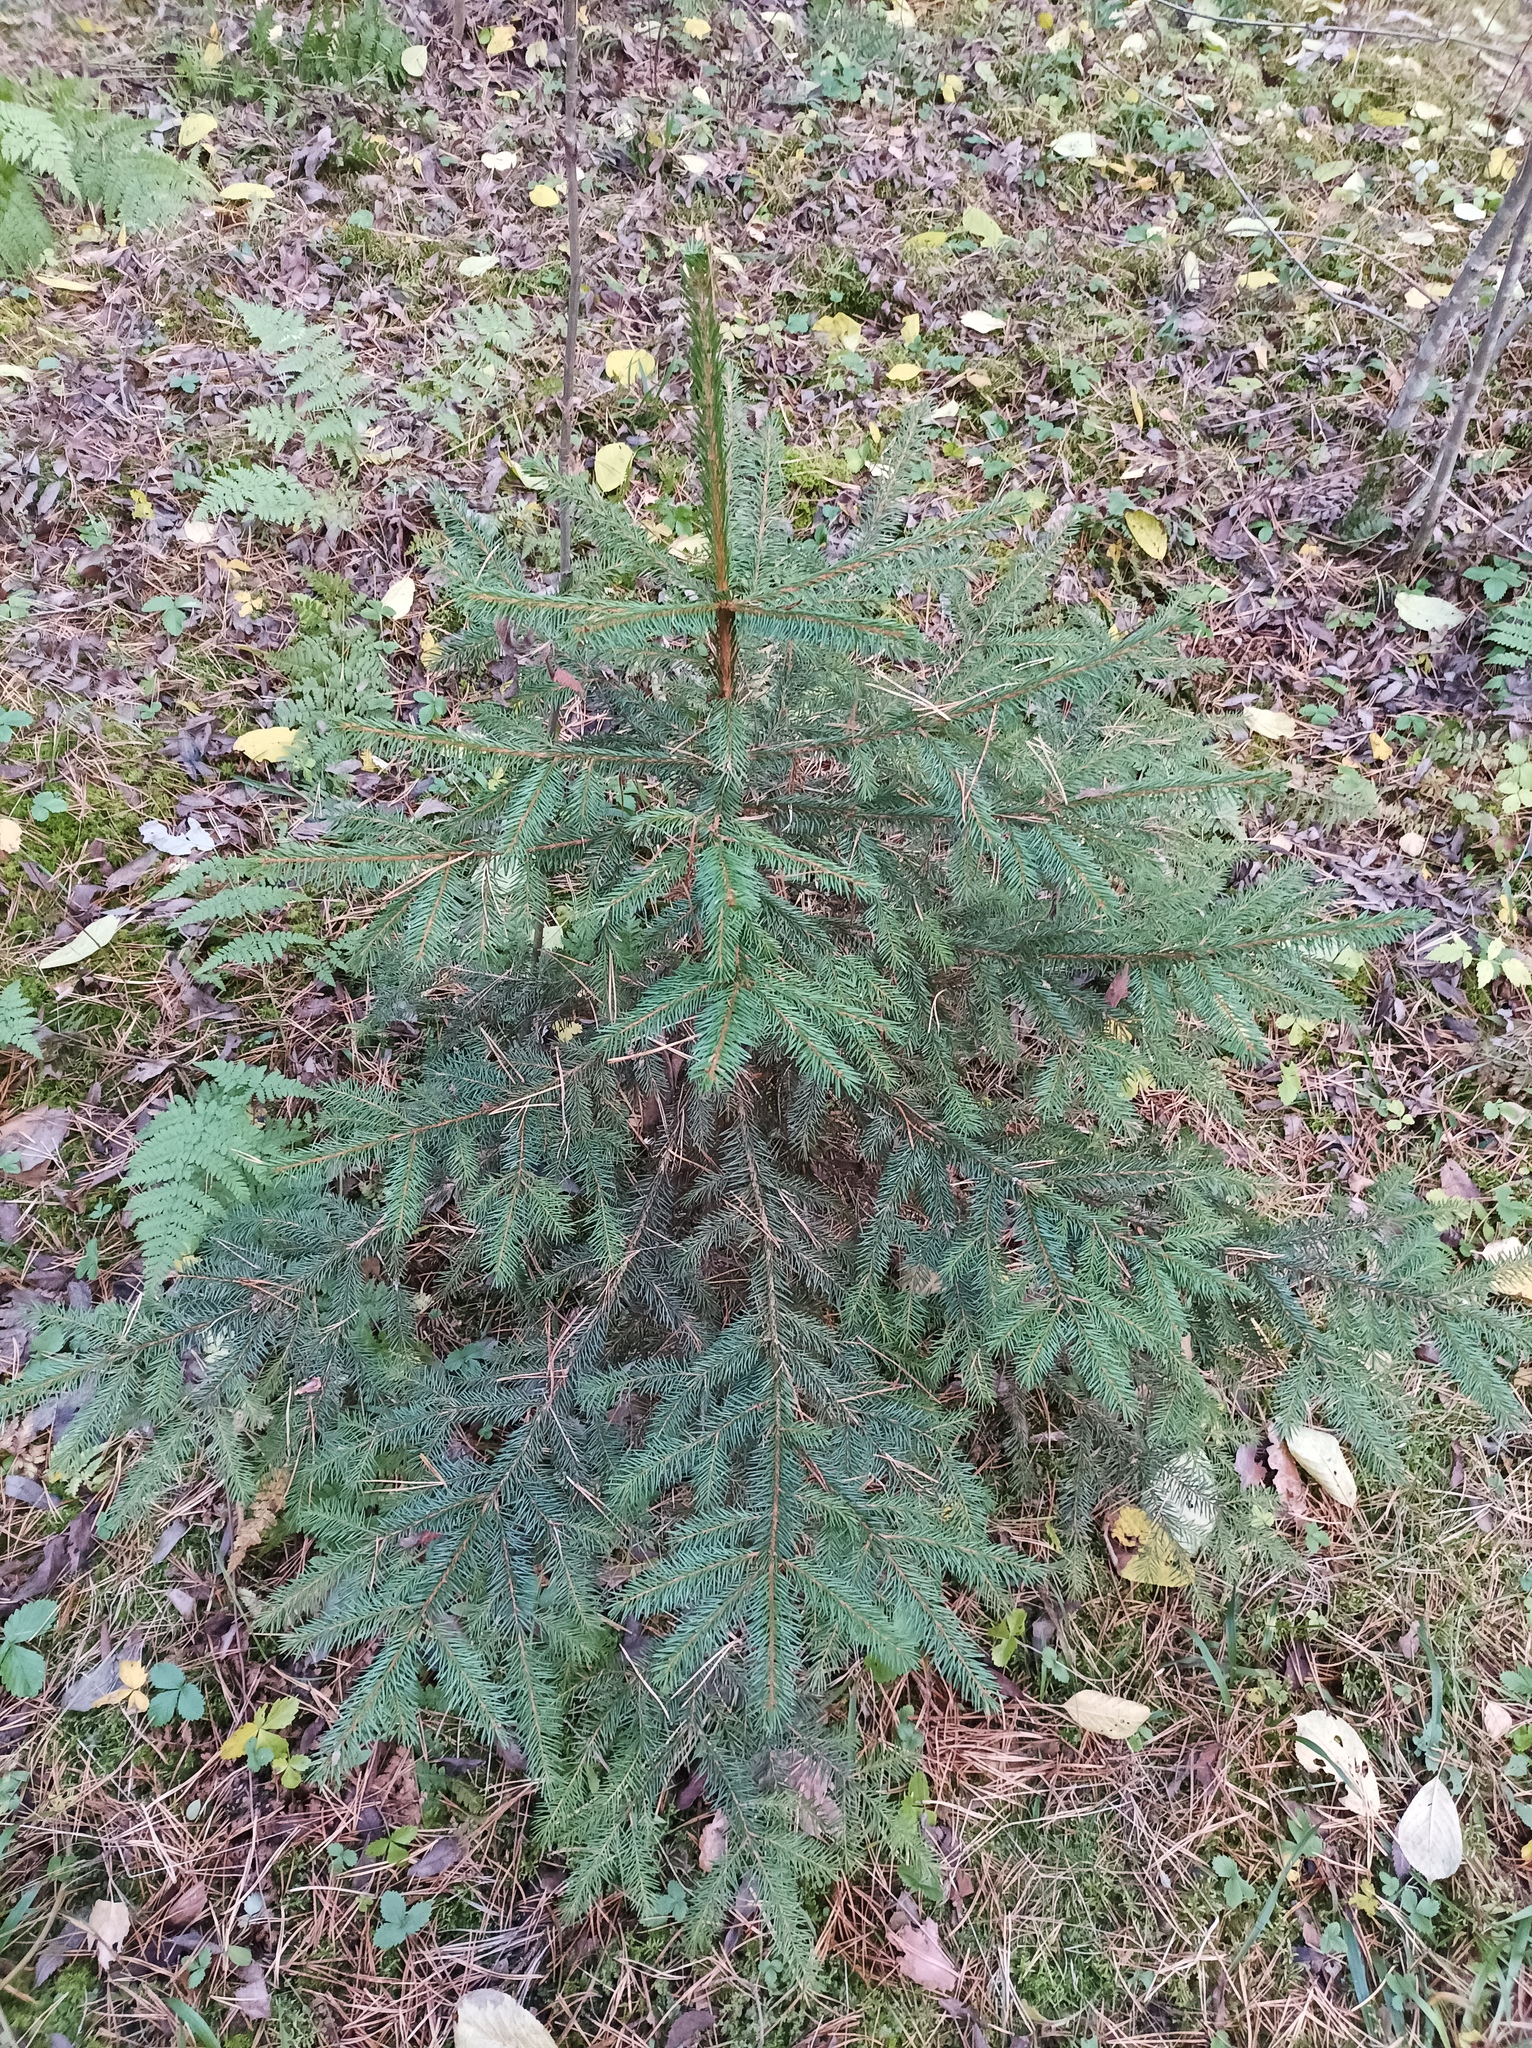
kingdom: Plantae
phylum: Tracheophyta
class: Pinopsida
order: Pinales
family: Pinaceae
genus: Picea
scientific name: Picea abies
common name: Norway spruce
